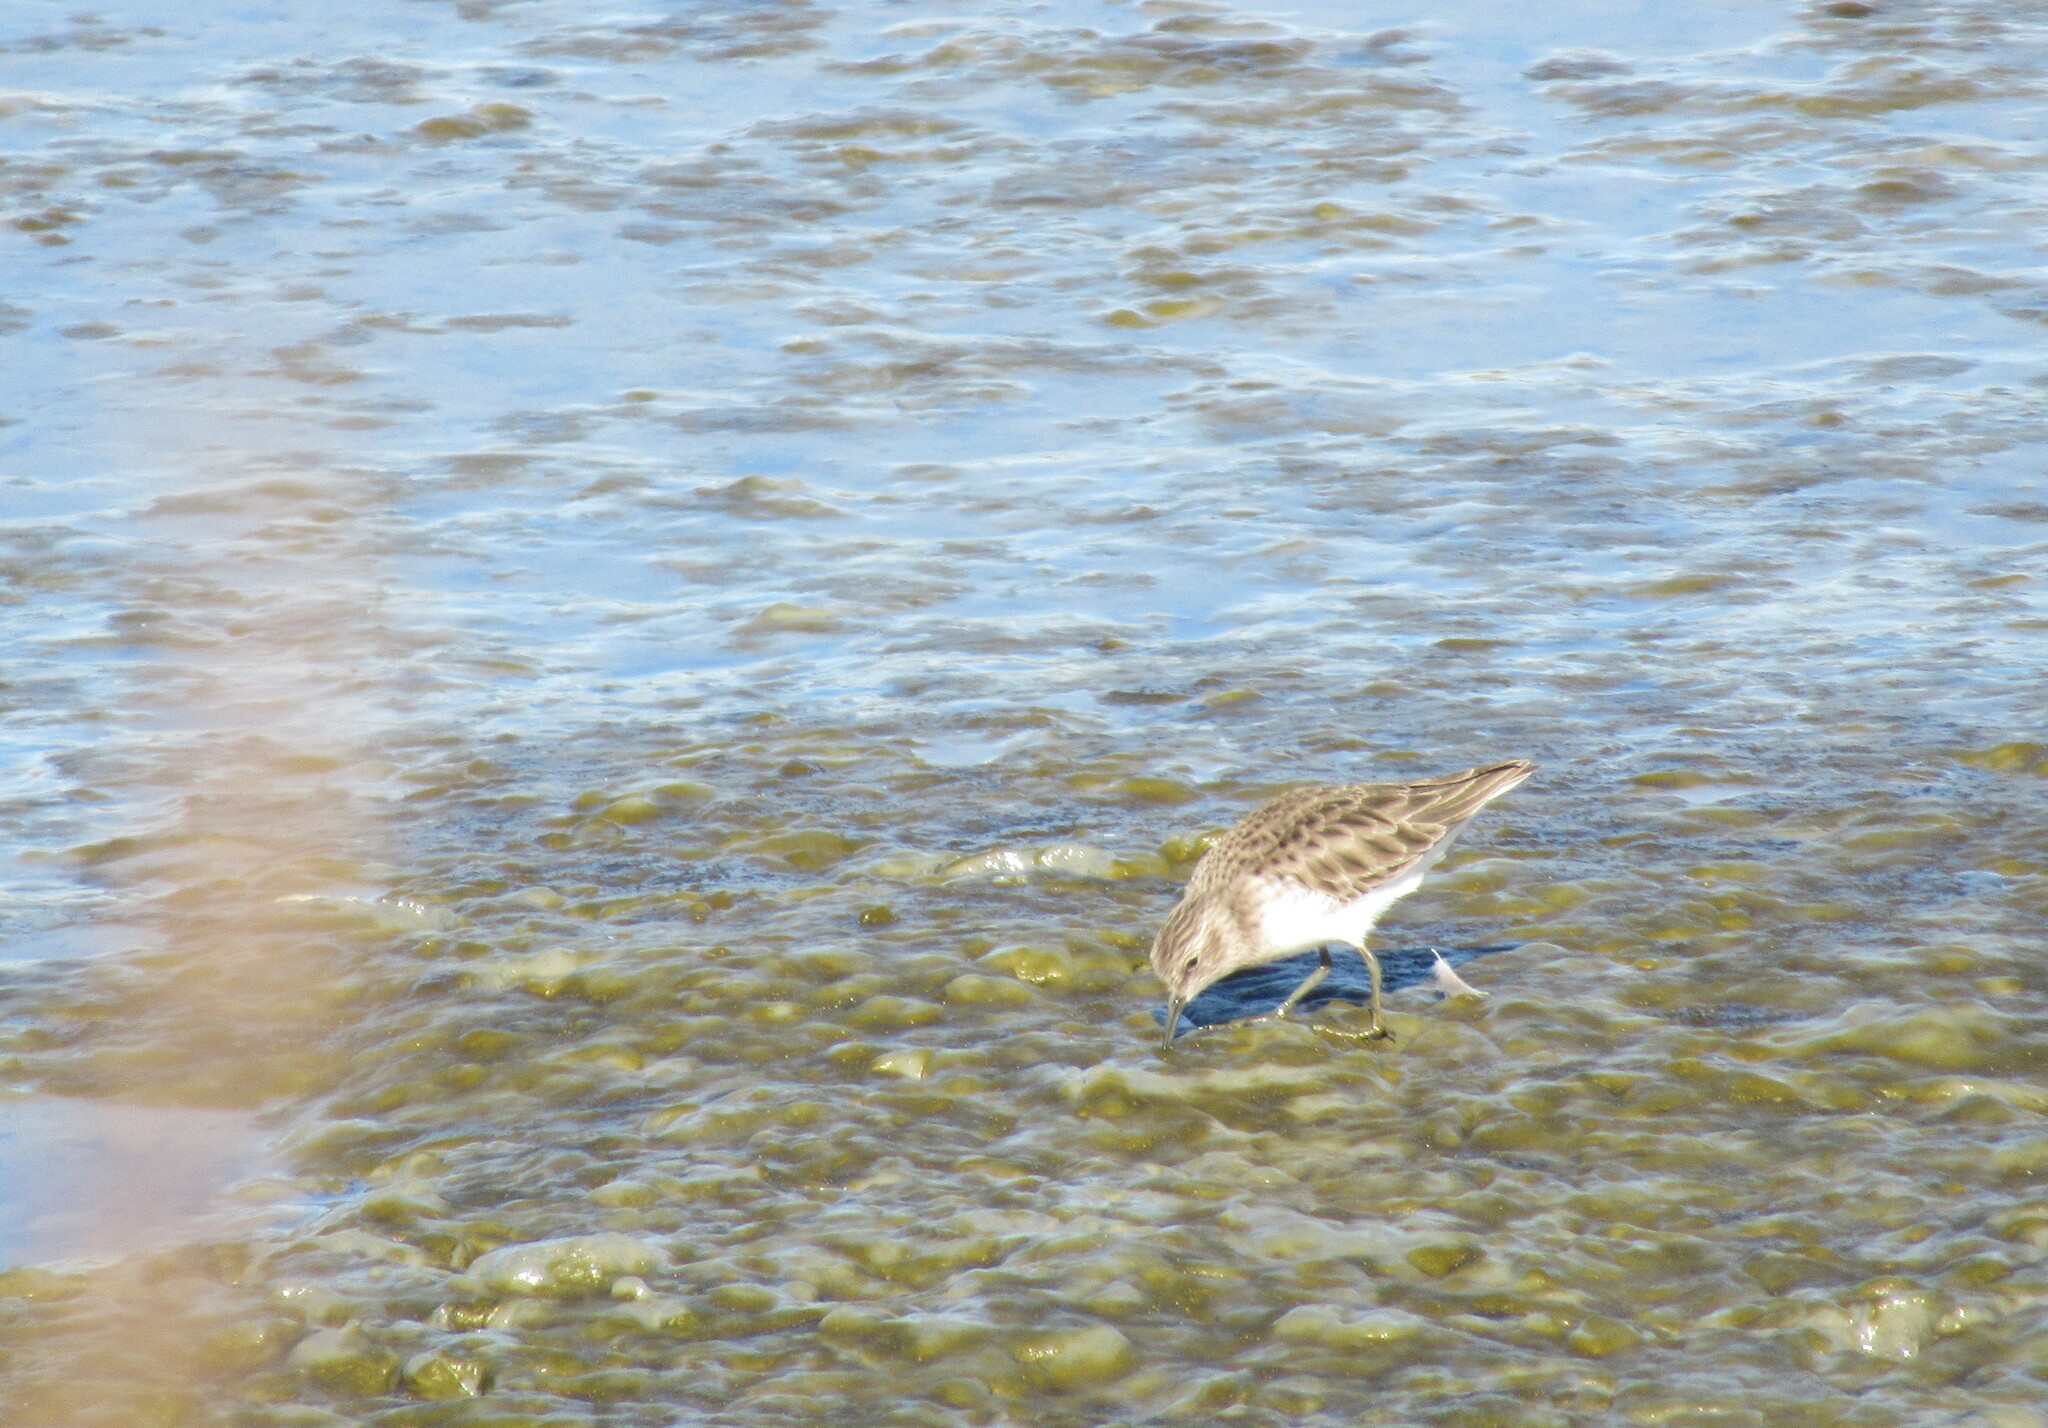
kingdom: Animalia
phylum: Chordata
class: Aves
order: Charadriiformes
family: Scolopacidae
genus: Calidris
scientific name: Calidris minutilla
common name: Least sandpiper
